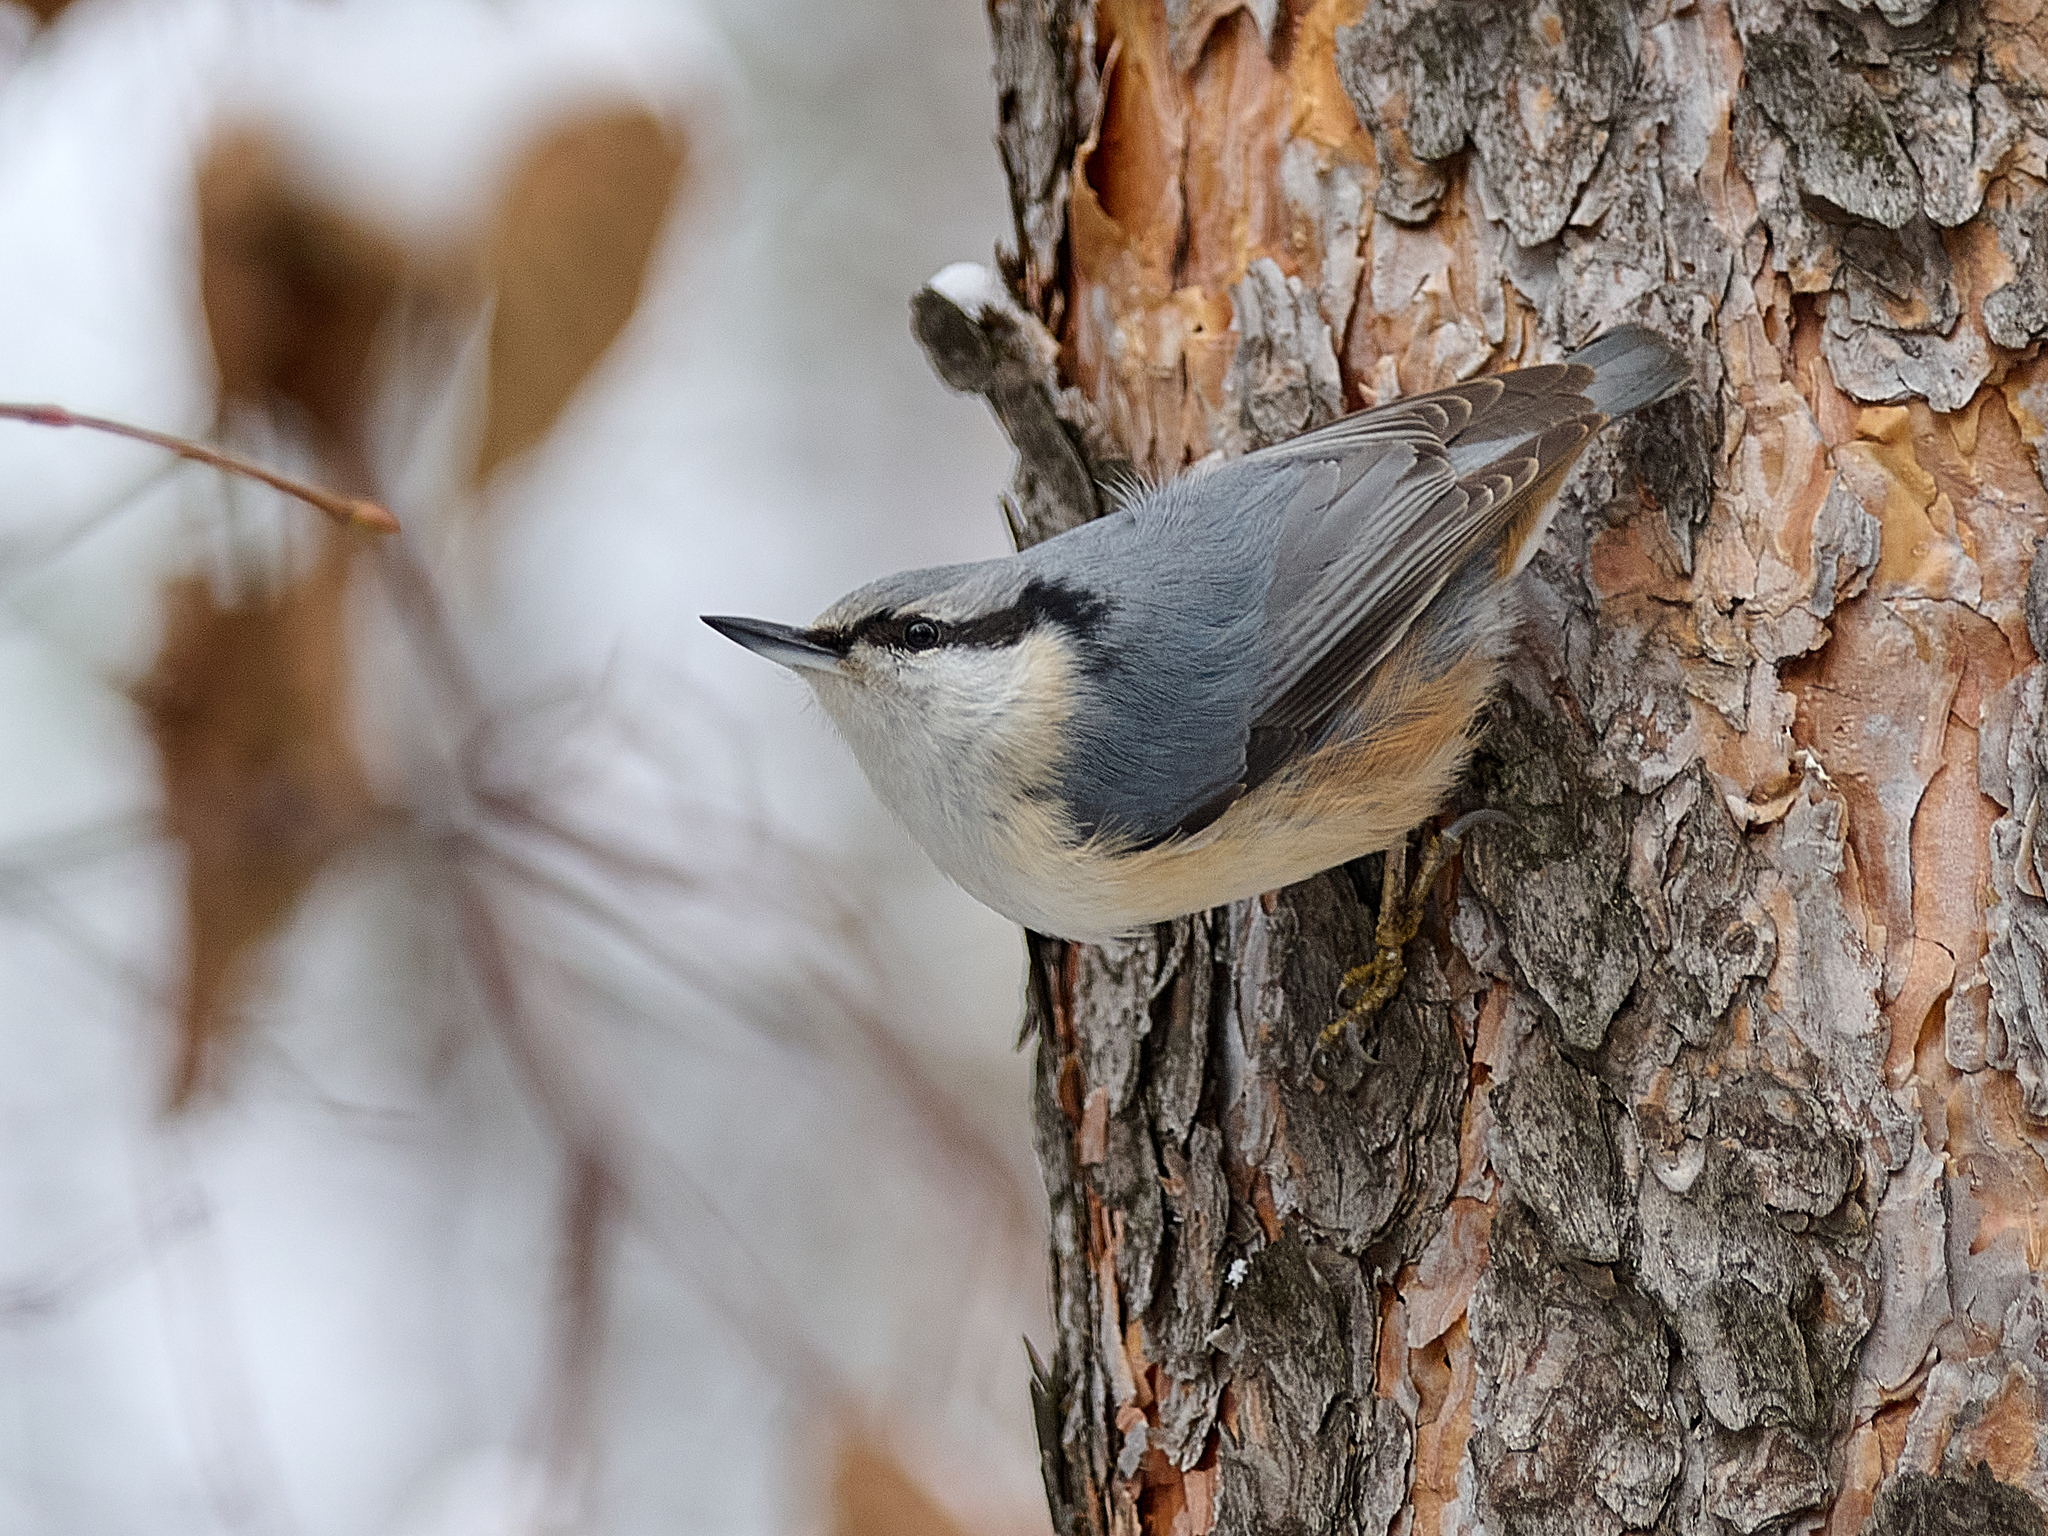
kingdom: Animalia
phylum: Chordata
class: Aves
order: Passeriformes
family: Sittidae
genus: Sitta
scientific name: Sitta europaea
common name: Eurasian nuthatch
